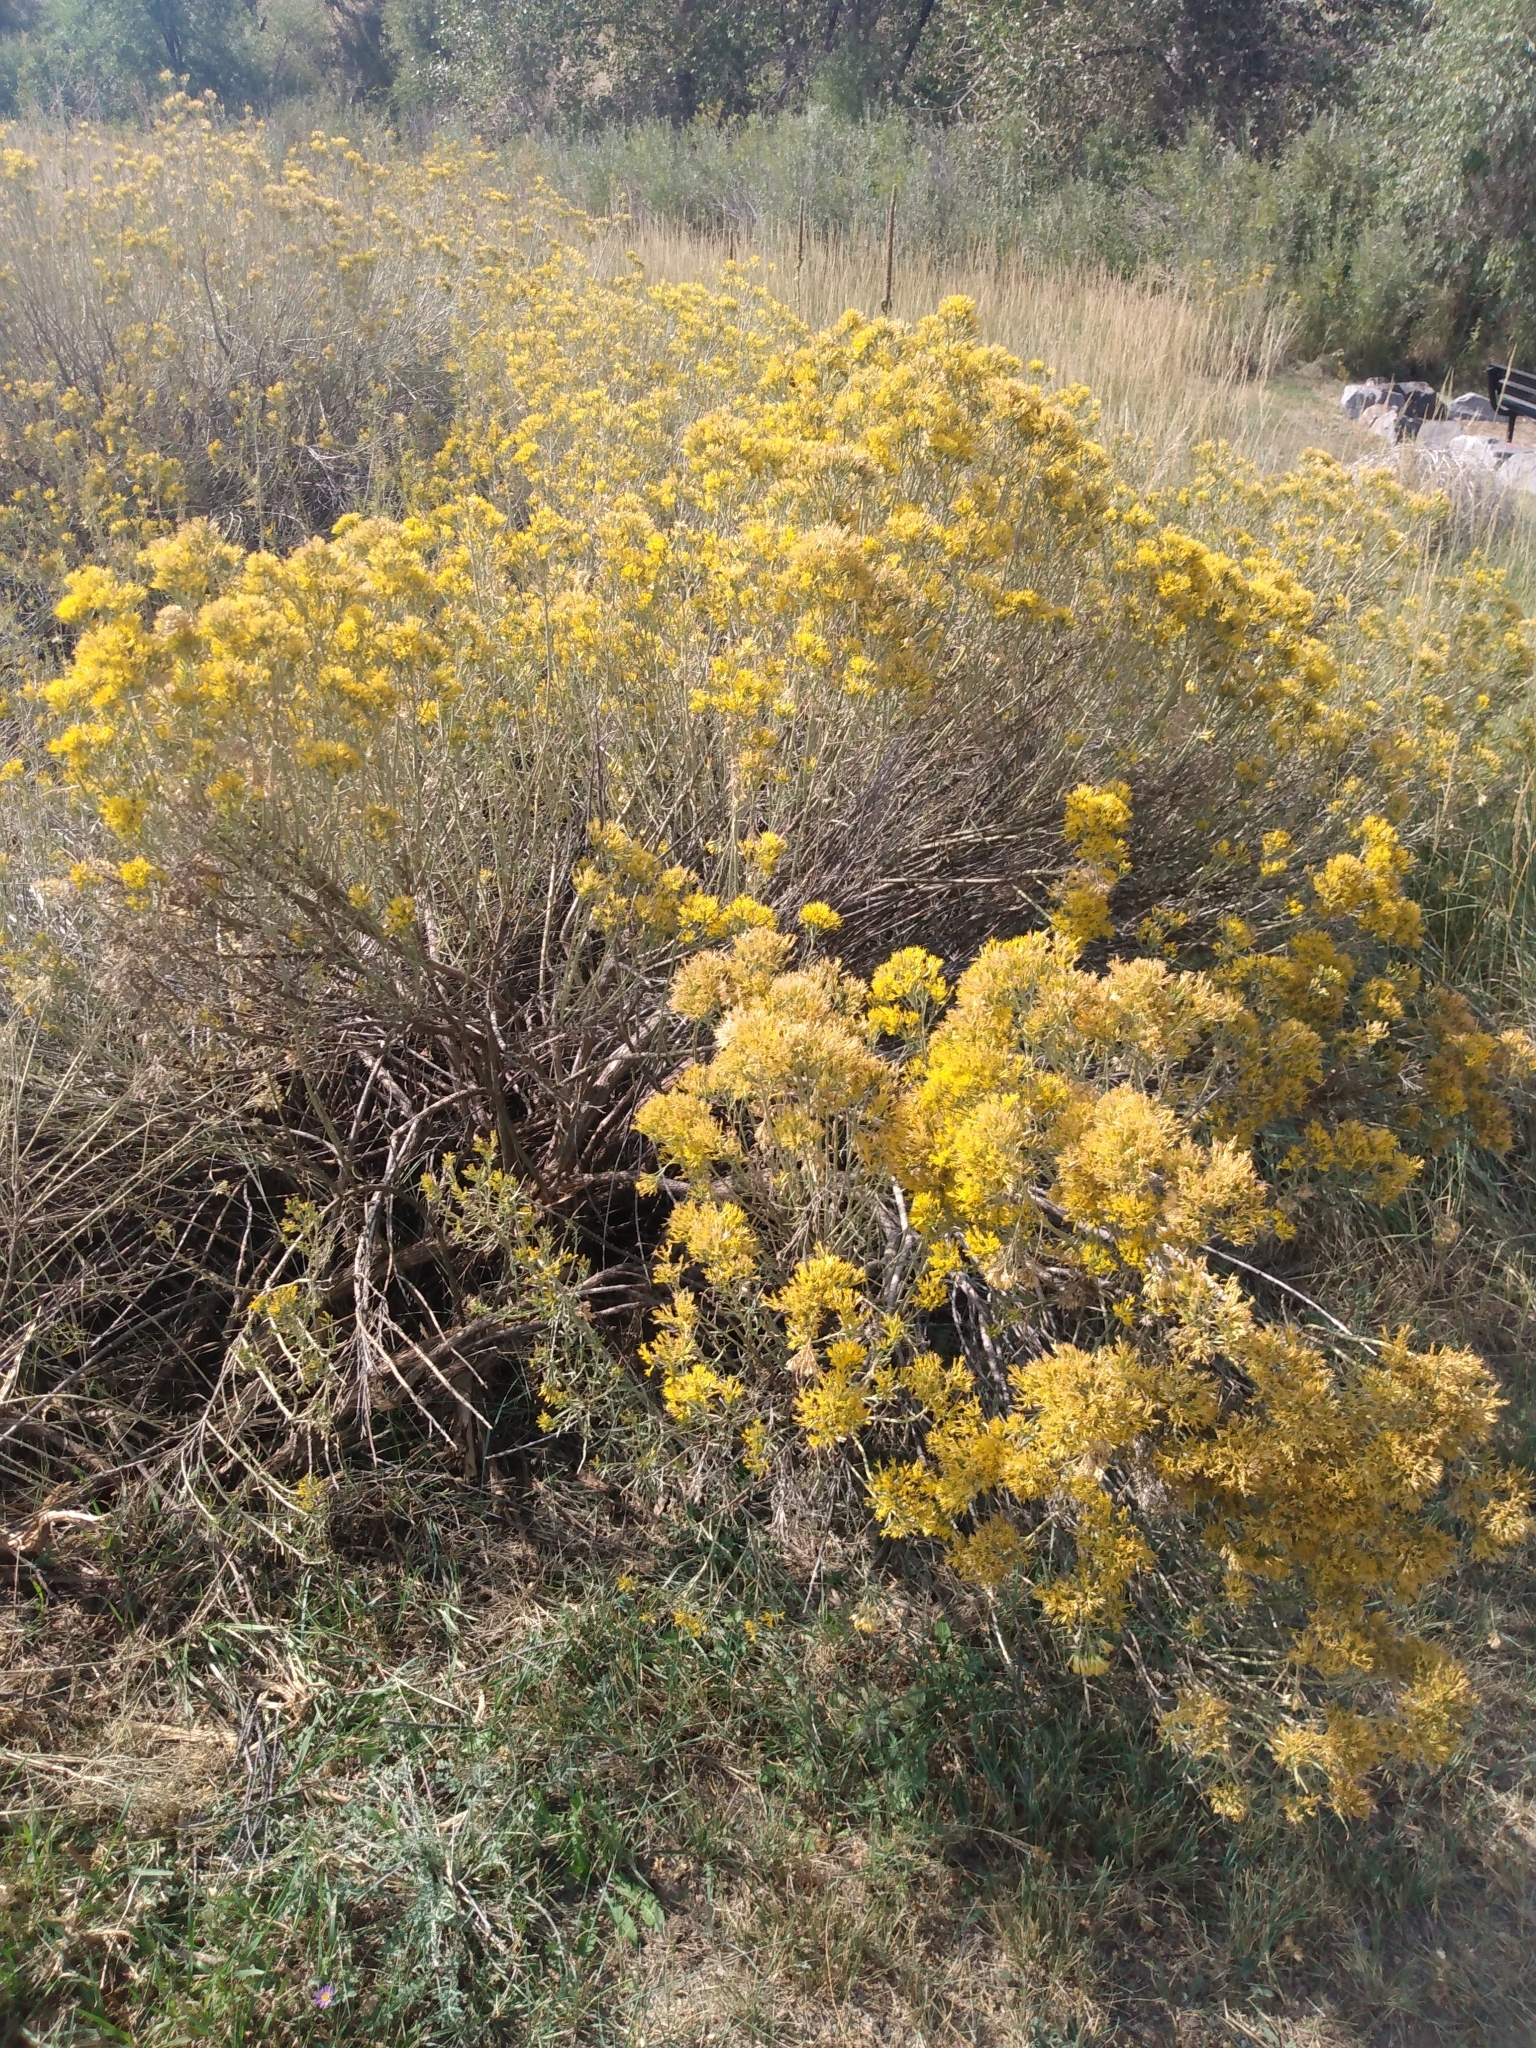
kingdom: Plantae
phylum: Tracheophyta
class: Magnoliopsida
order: Asterales
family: Asteraceae
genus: Ericameria
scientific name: Ericameria nauseosa
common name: Rubber rabbitbrush
